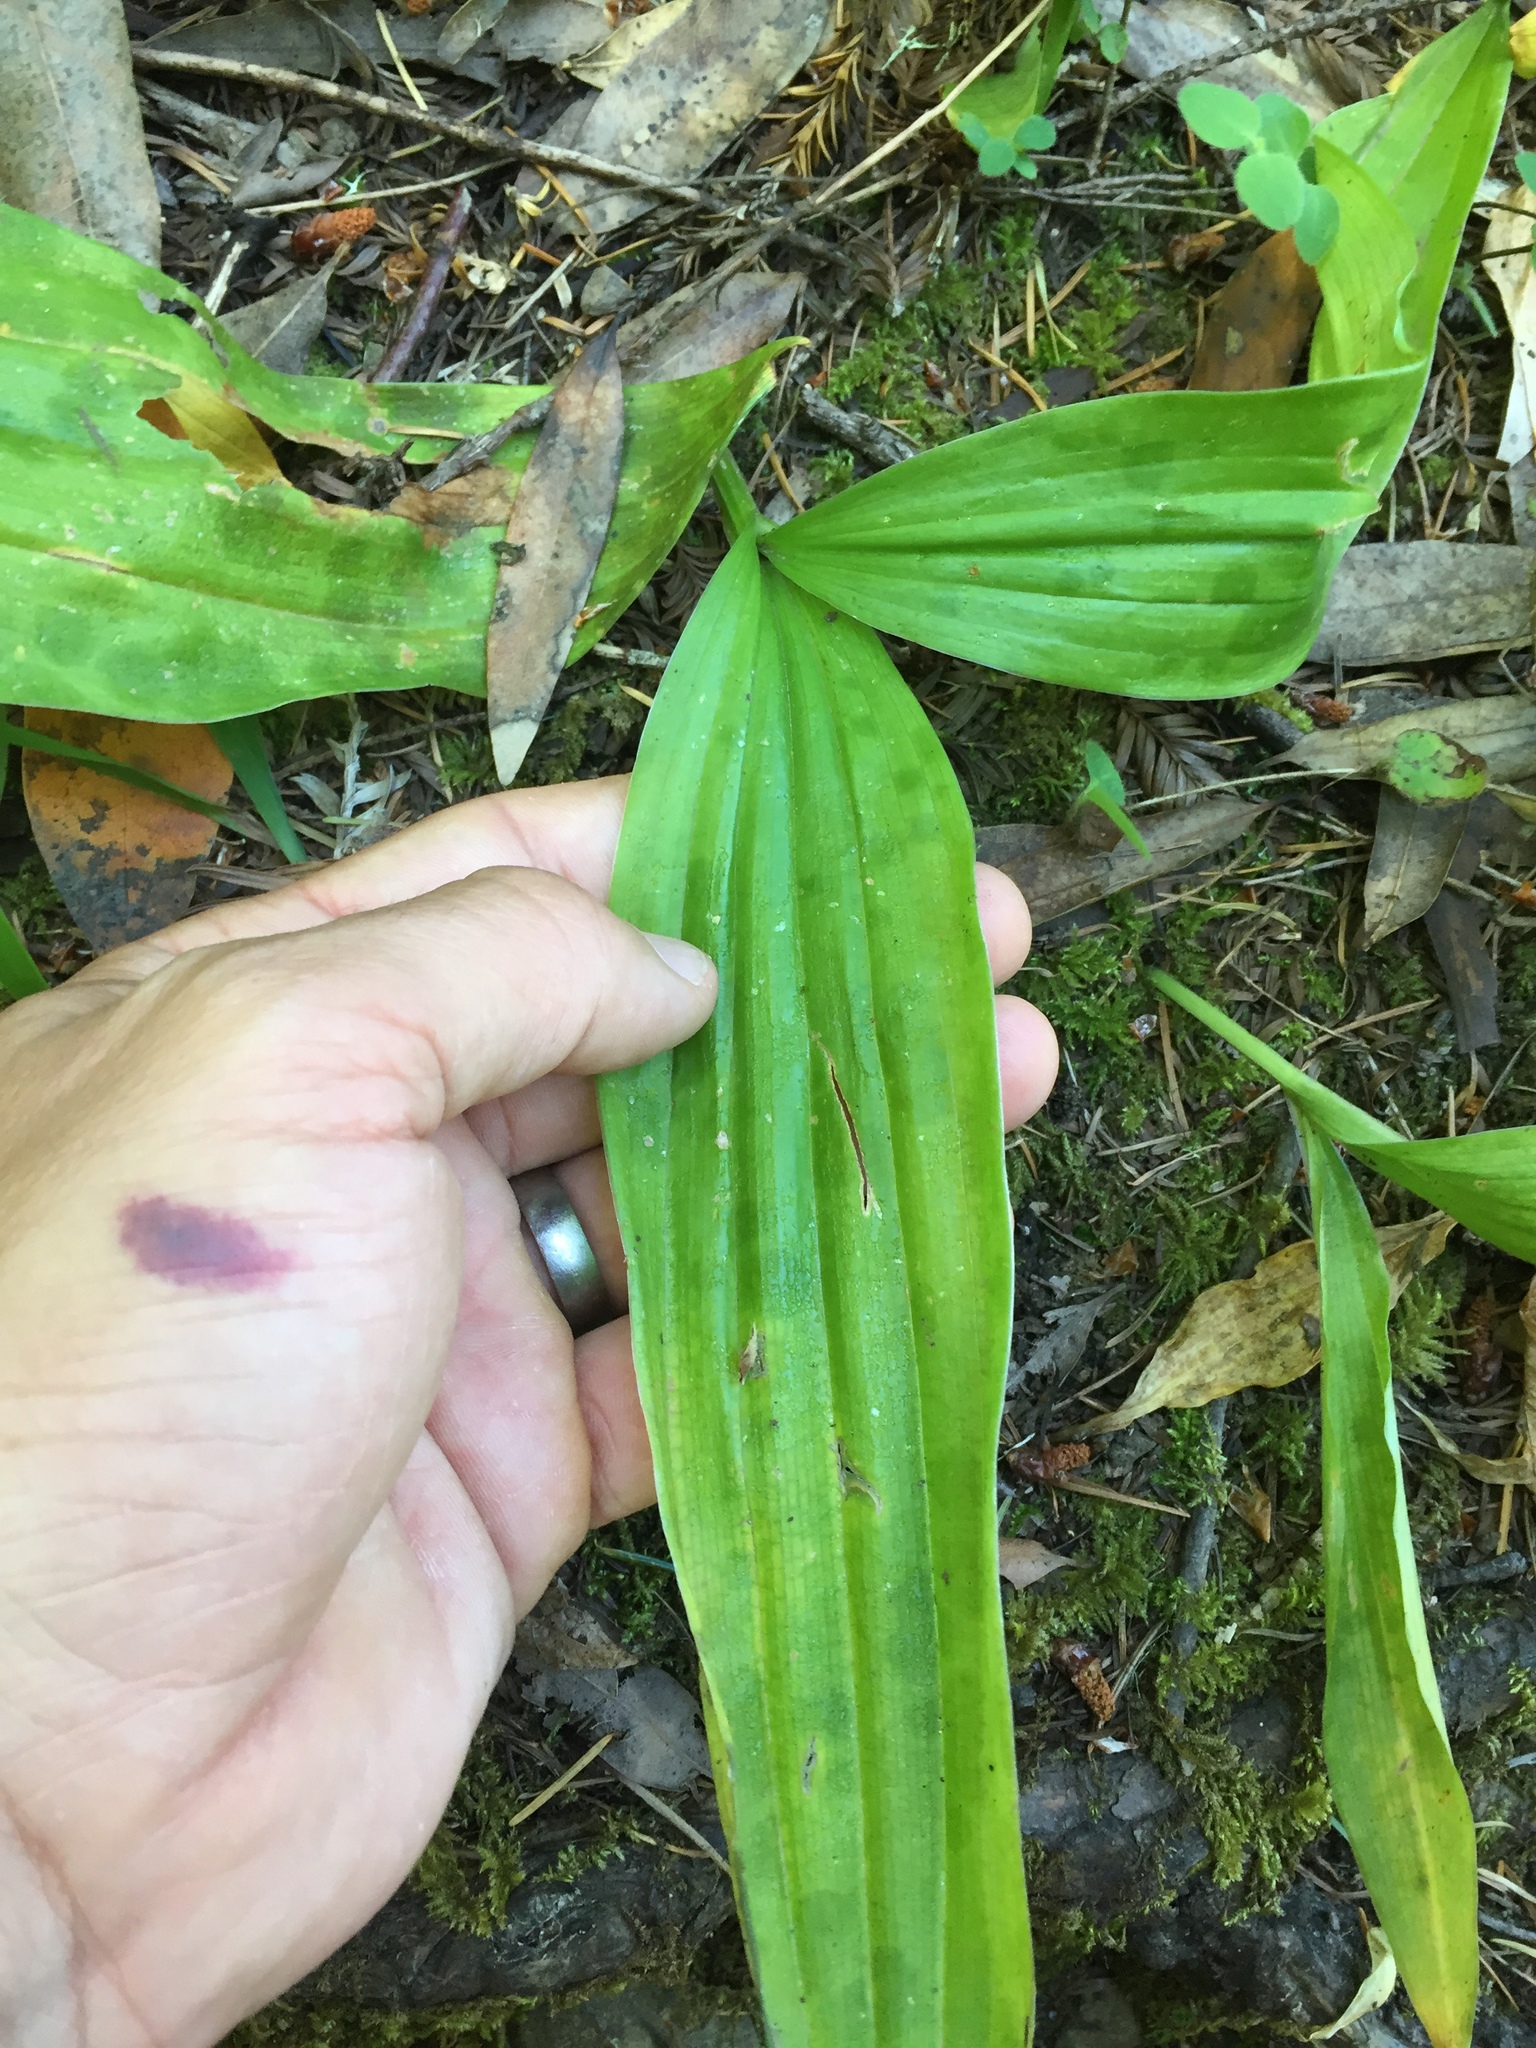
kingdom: Plantae
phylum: Tracheophyta
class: Liliopsida
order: Liliales
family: Liliaceae
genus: Scoliopus
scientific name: Scoliopus bigelovii
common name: Foetid adder's-tongue
